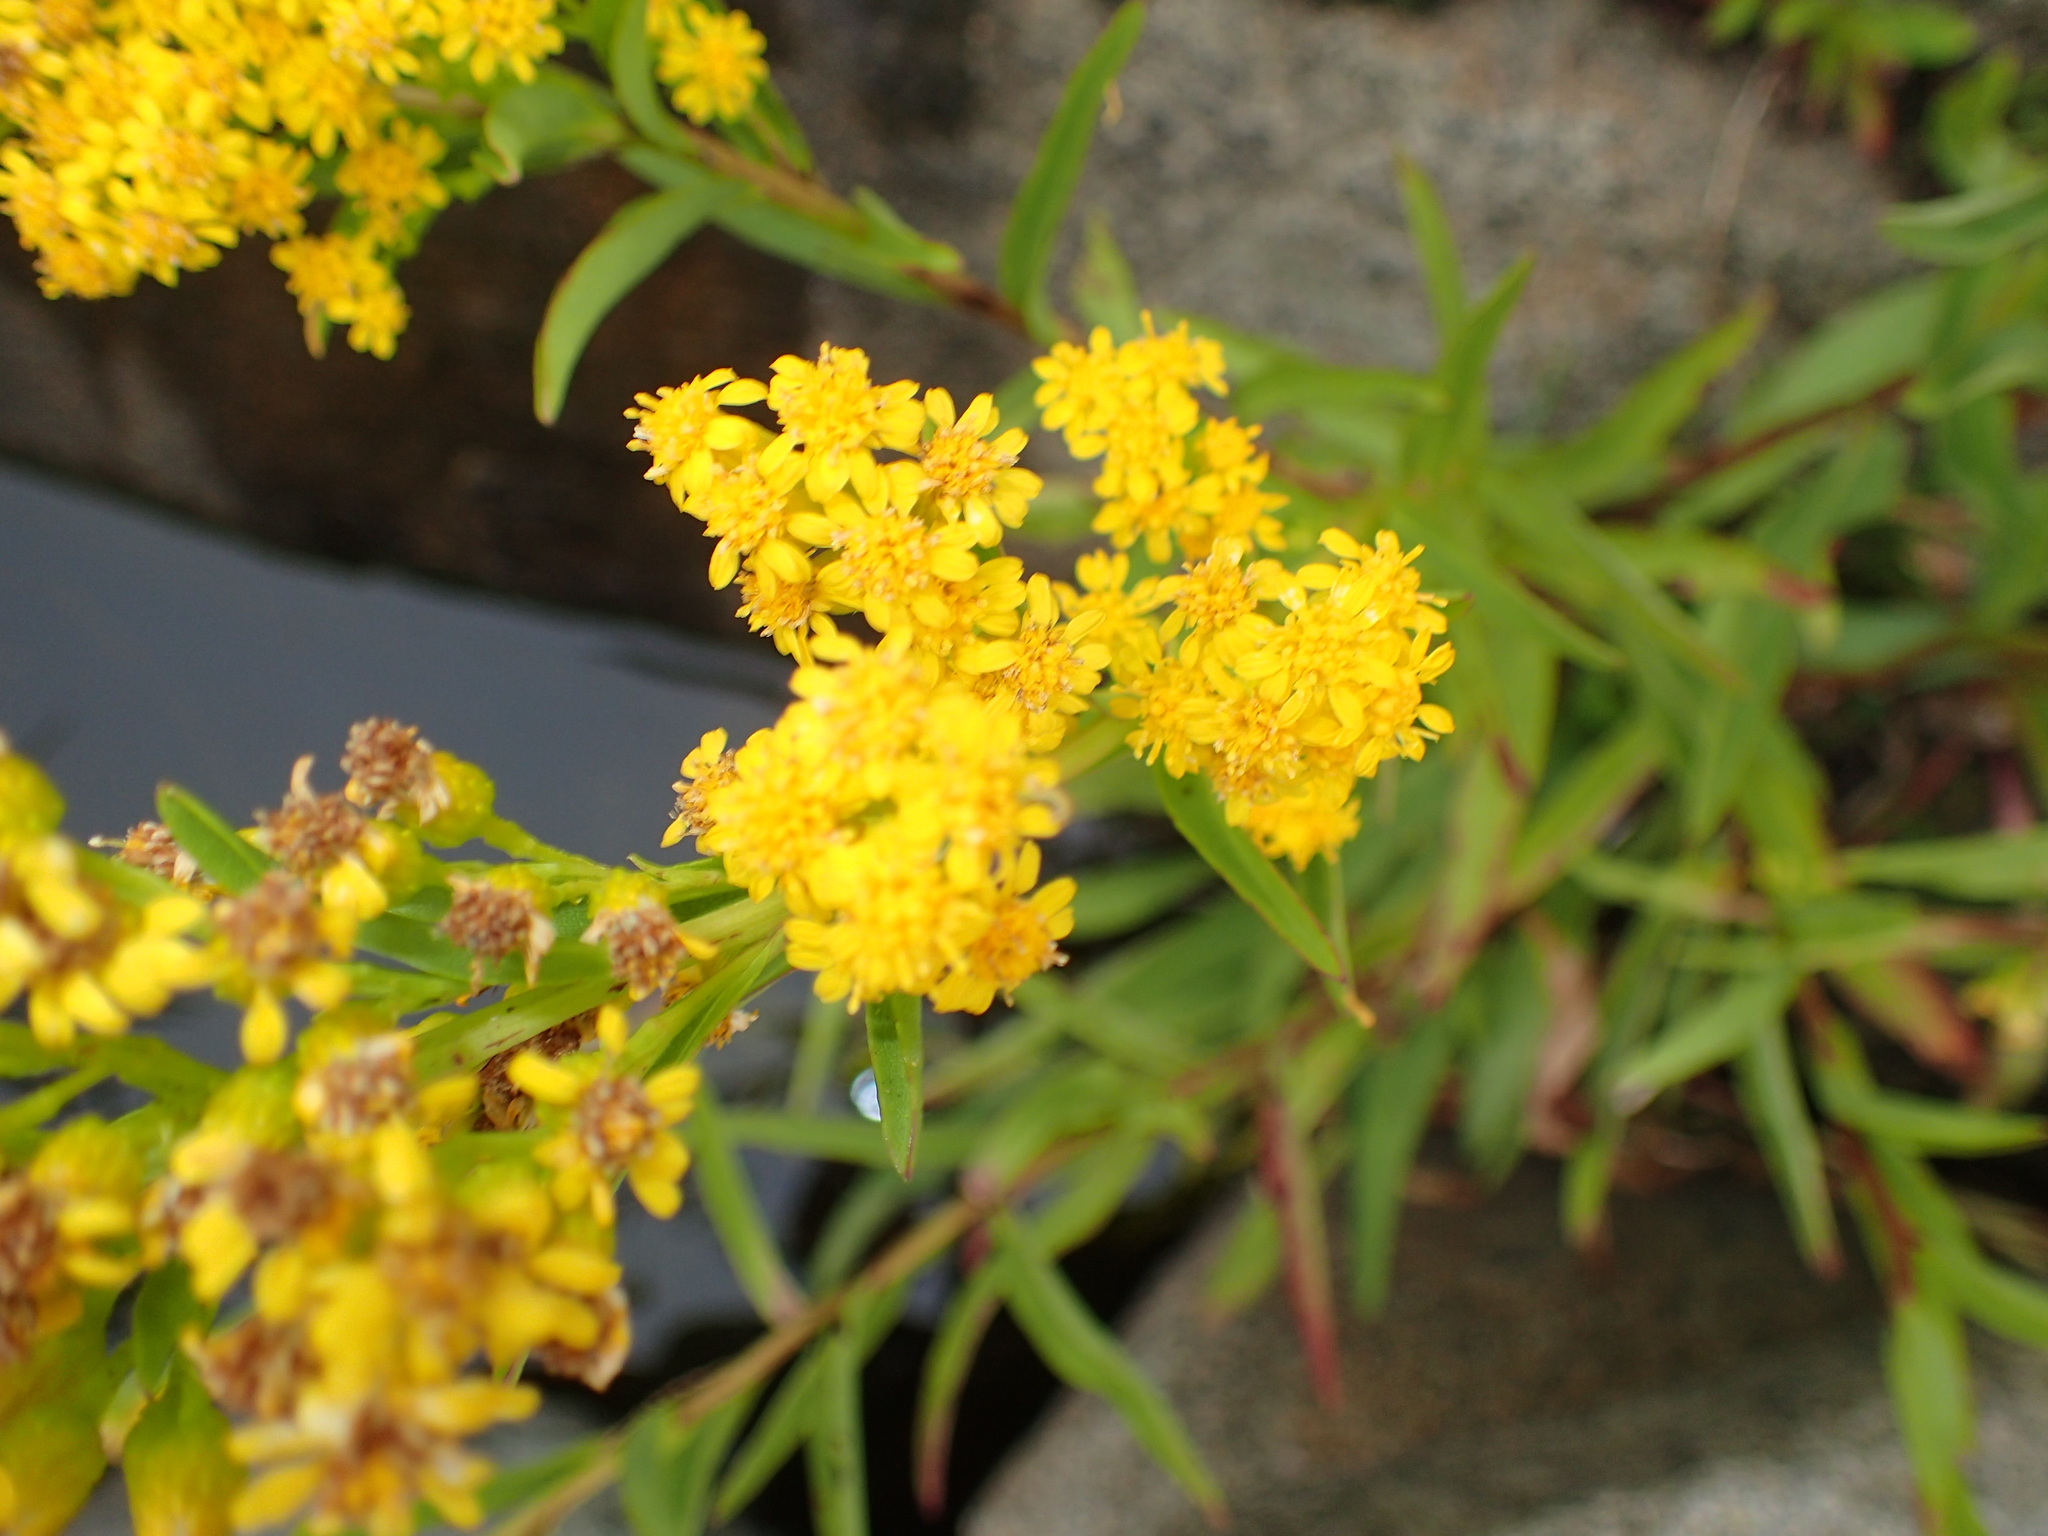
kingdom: Plantae
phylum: Tracheophyta
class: Magnoliopsida
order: Asterales
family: Asteraceae
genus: Solidago
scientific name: Solidago sempervirens
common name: Salt-marsh goldenrod
